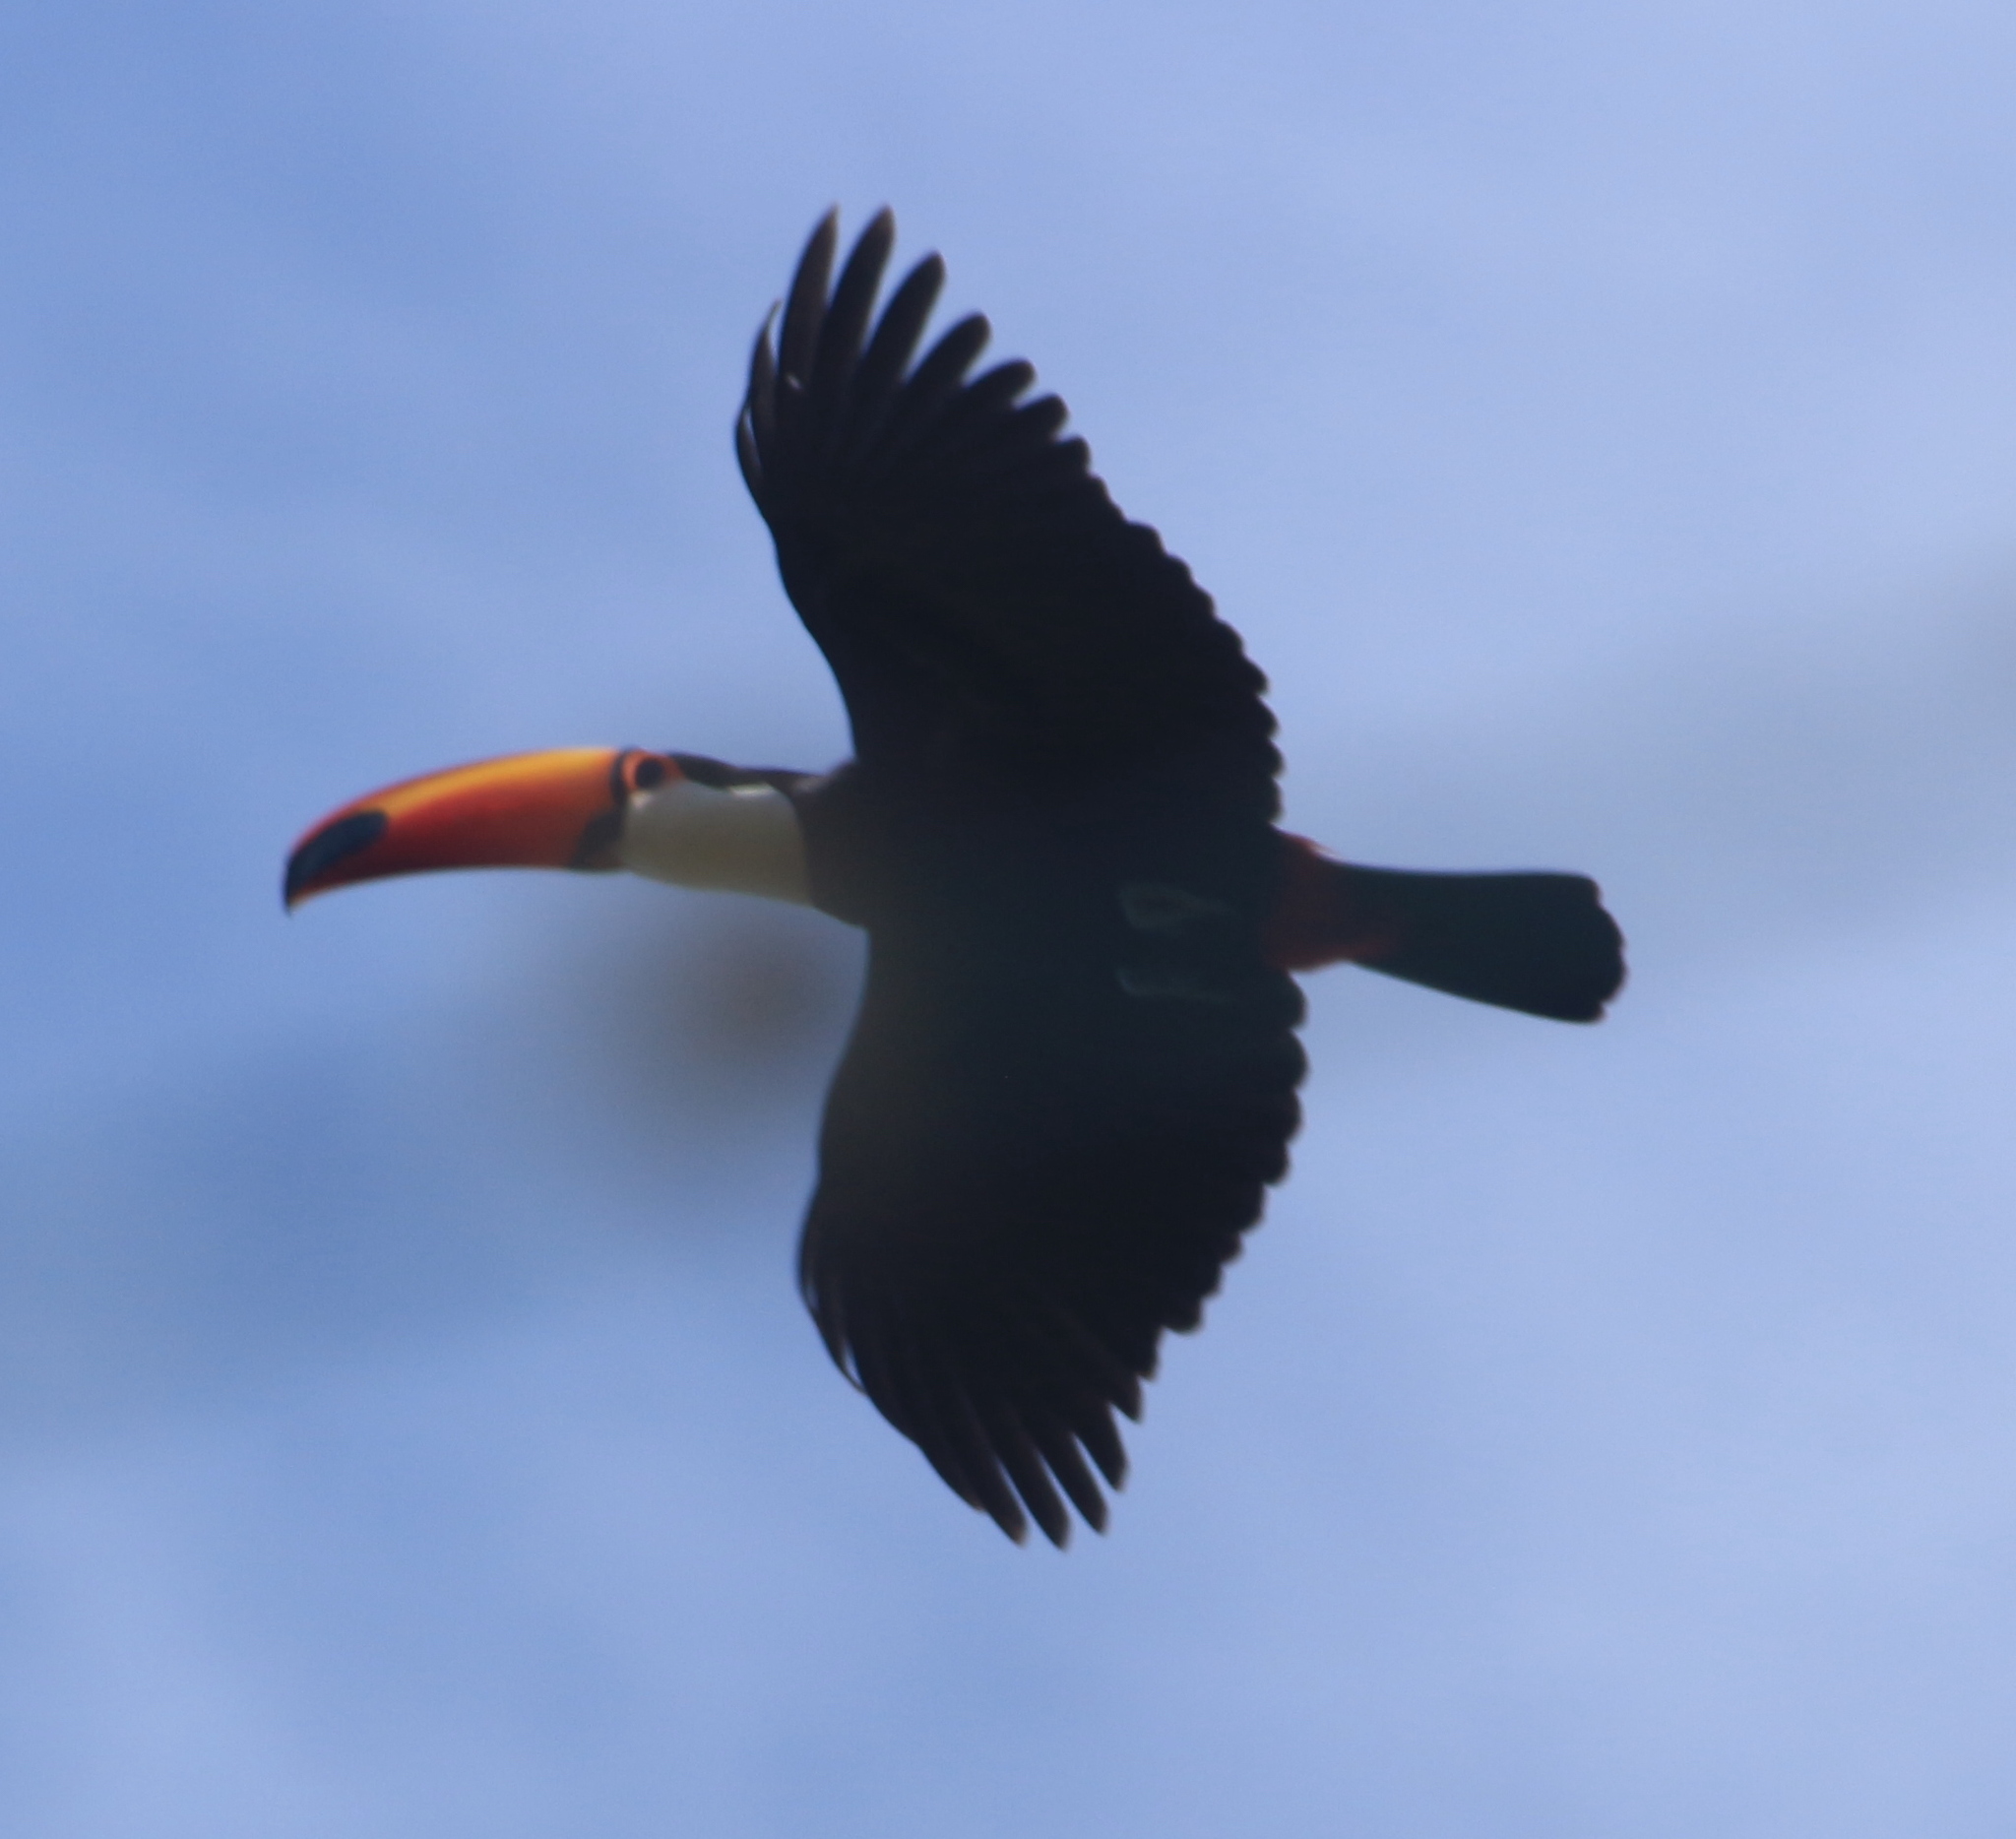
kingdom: Animalia
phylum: Chordata
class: Aves
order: Piciformes
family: Ramphastidae
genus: Ramphastos
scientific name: Ramphastos toco
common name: Toco toucan
